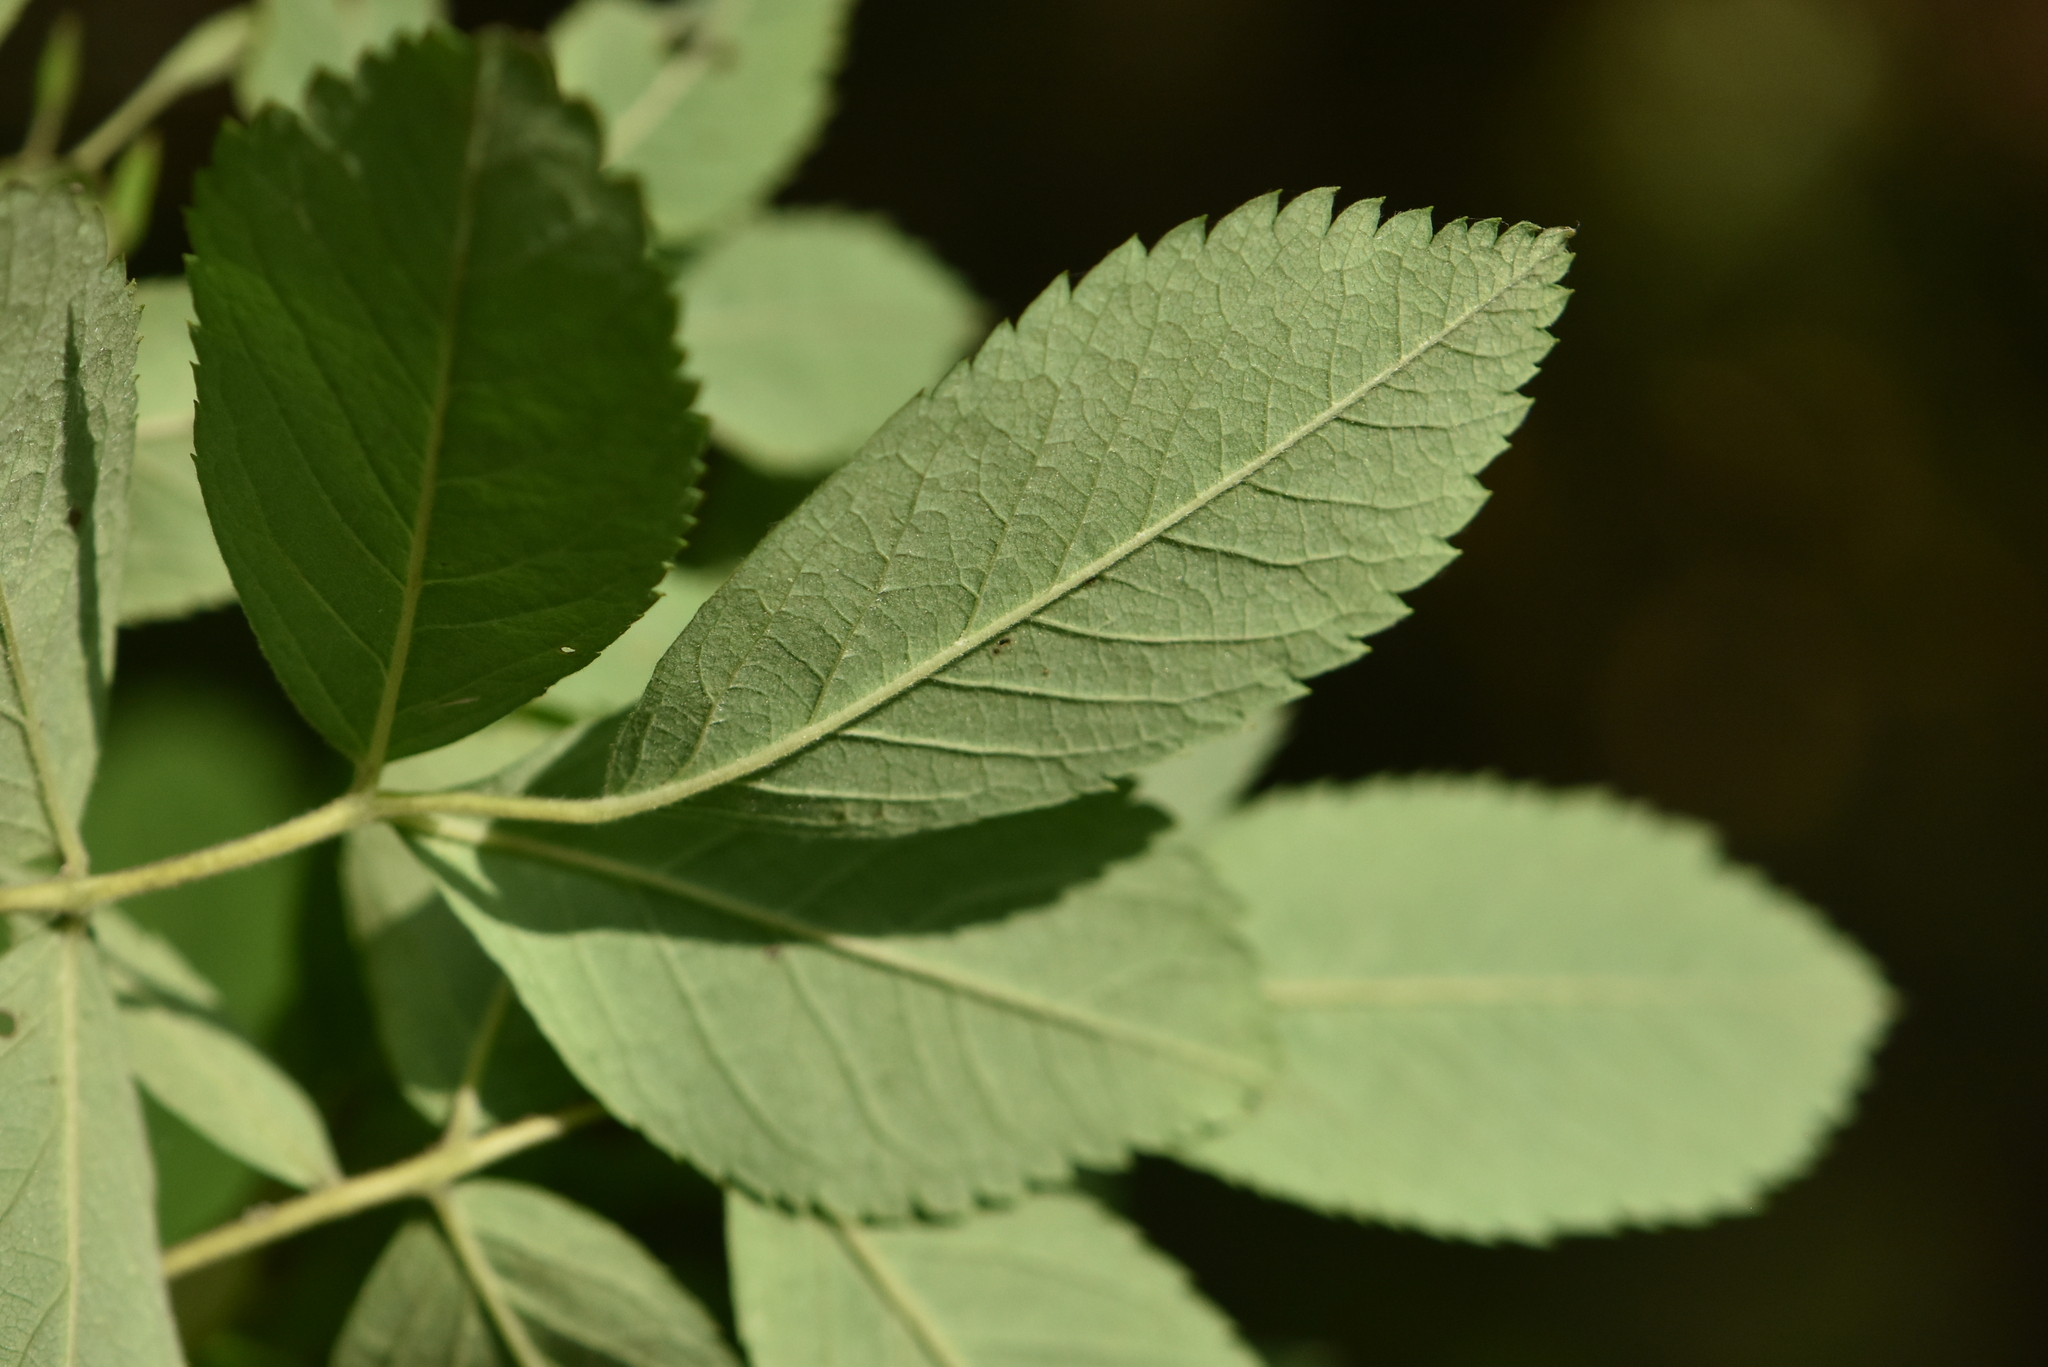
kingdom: Plantae
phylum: Tracheophyta
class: Magnoliopsida
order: Rosales
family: Rosaceae
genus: Rosa
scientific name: Rosa majalis
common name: Cinnamon rose
